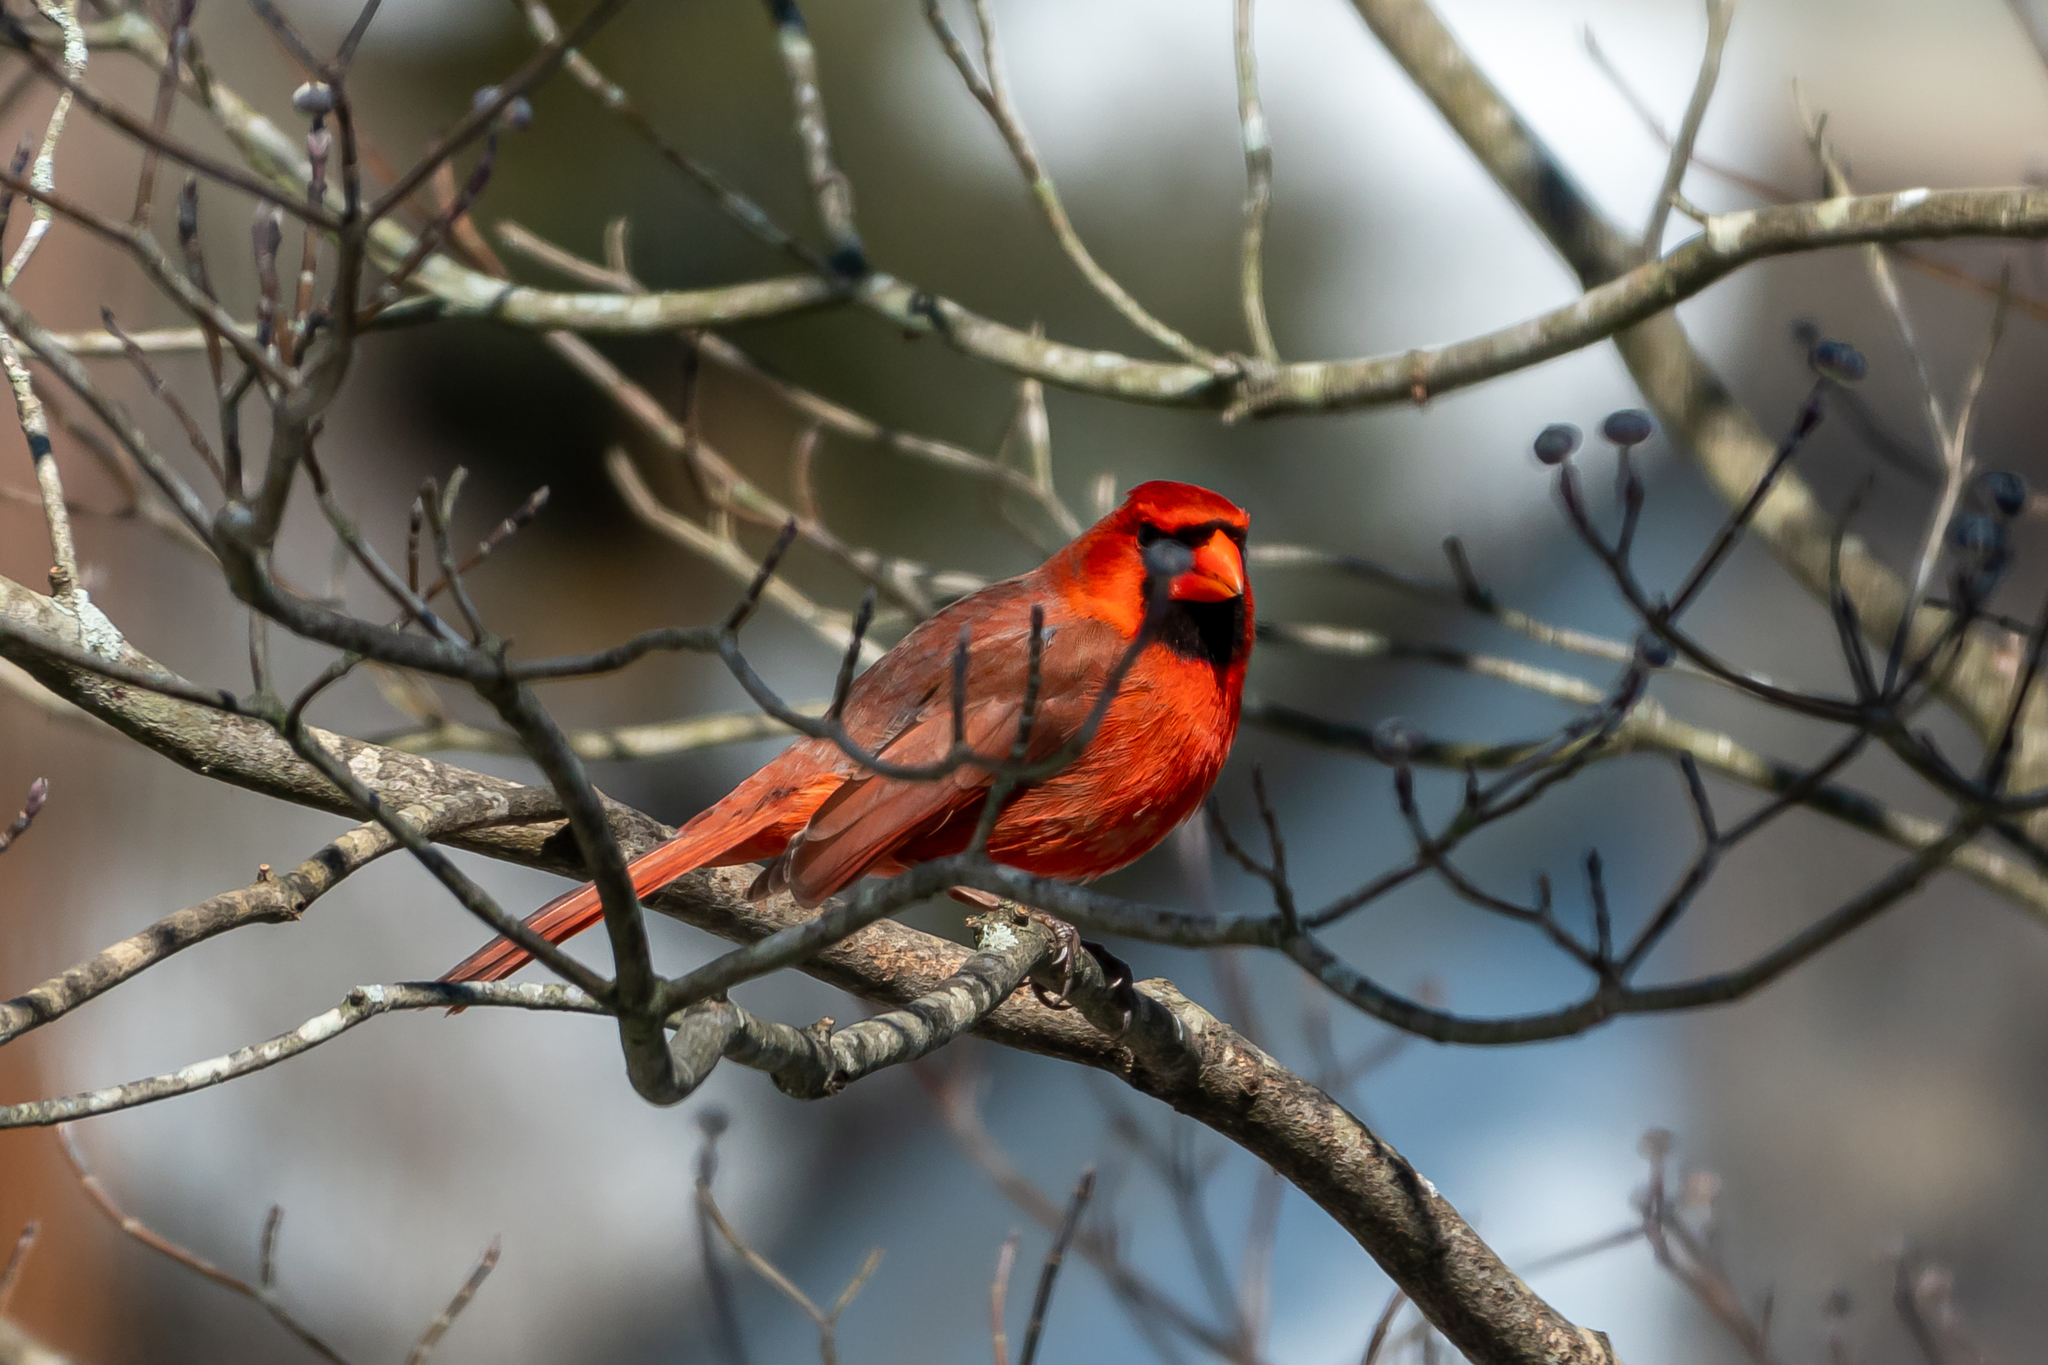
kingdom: Animalia
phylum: Chordata
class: Aves
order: Passeriformes
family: Cardinalidae
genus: Cardinalis
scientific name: Cardinalis cardinalis
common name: Northern cardinal
